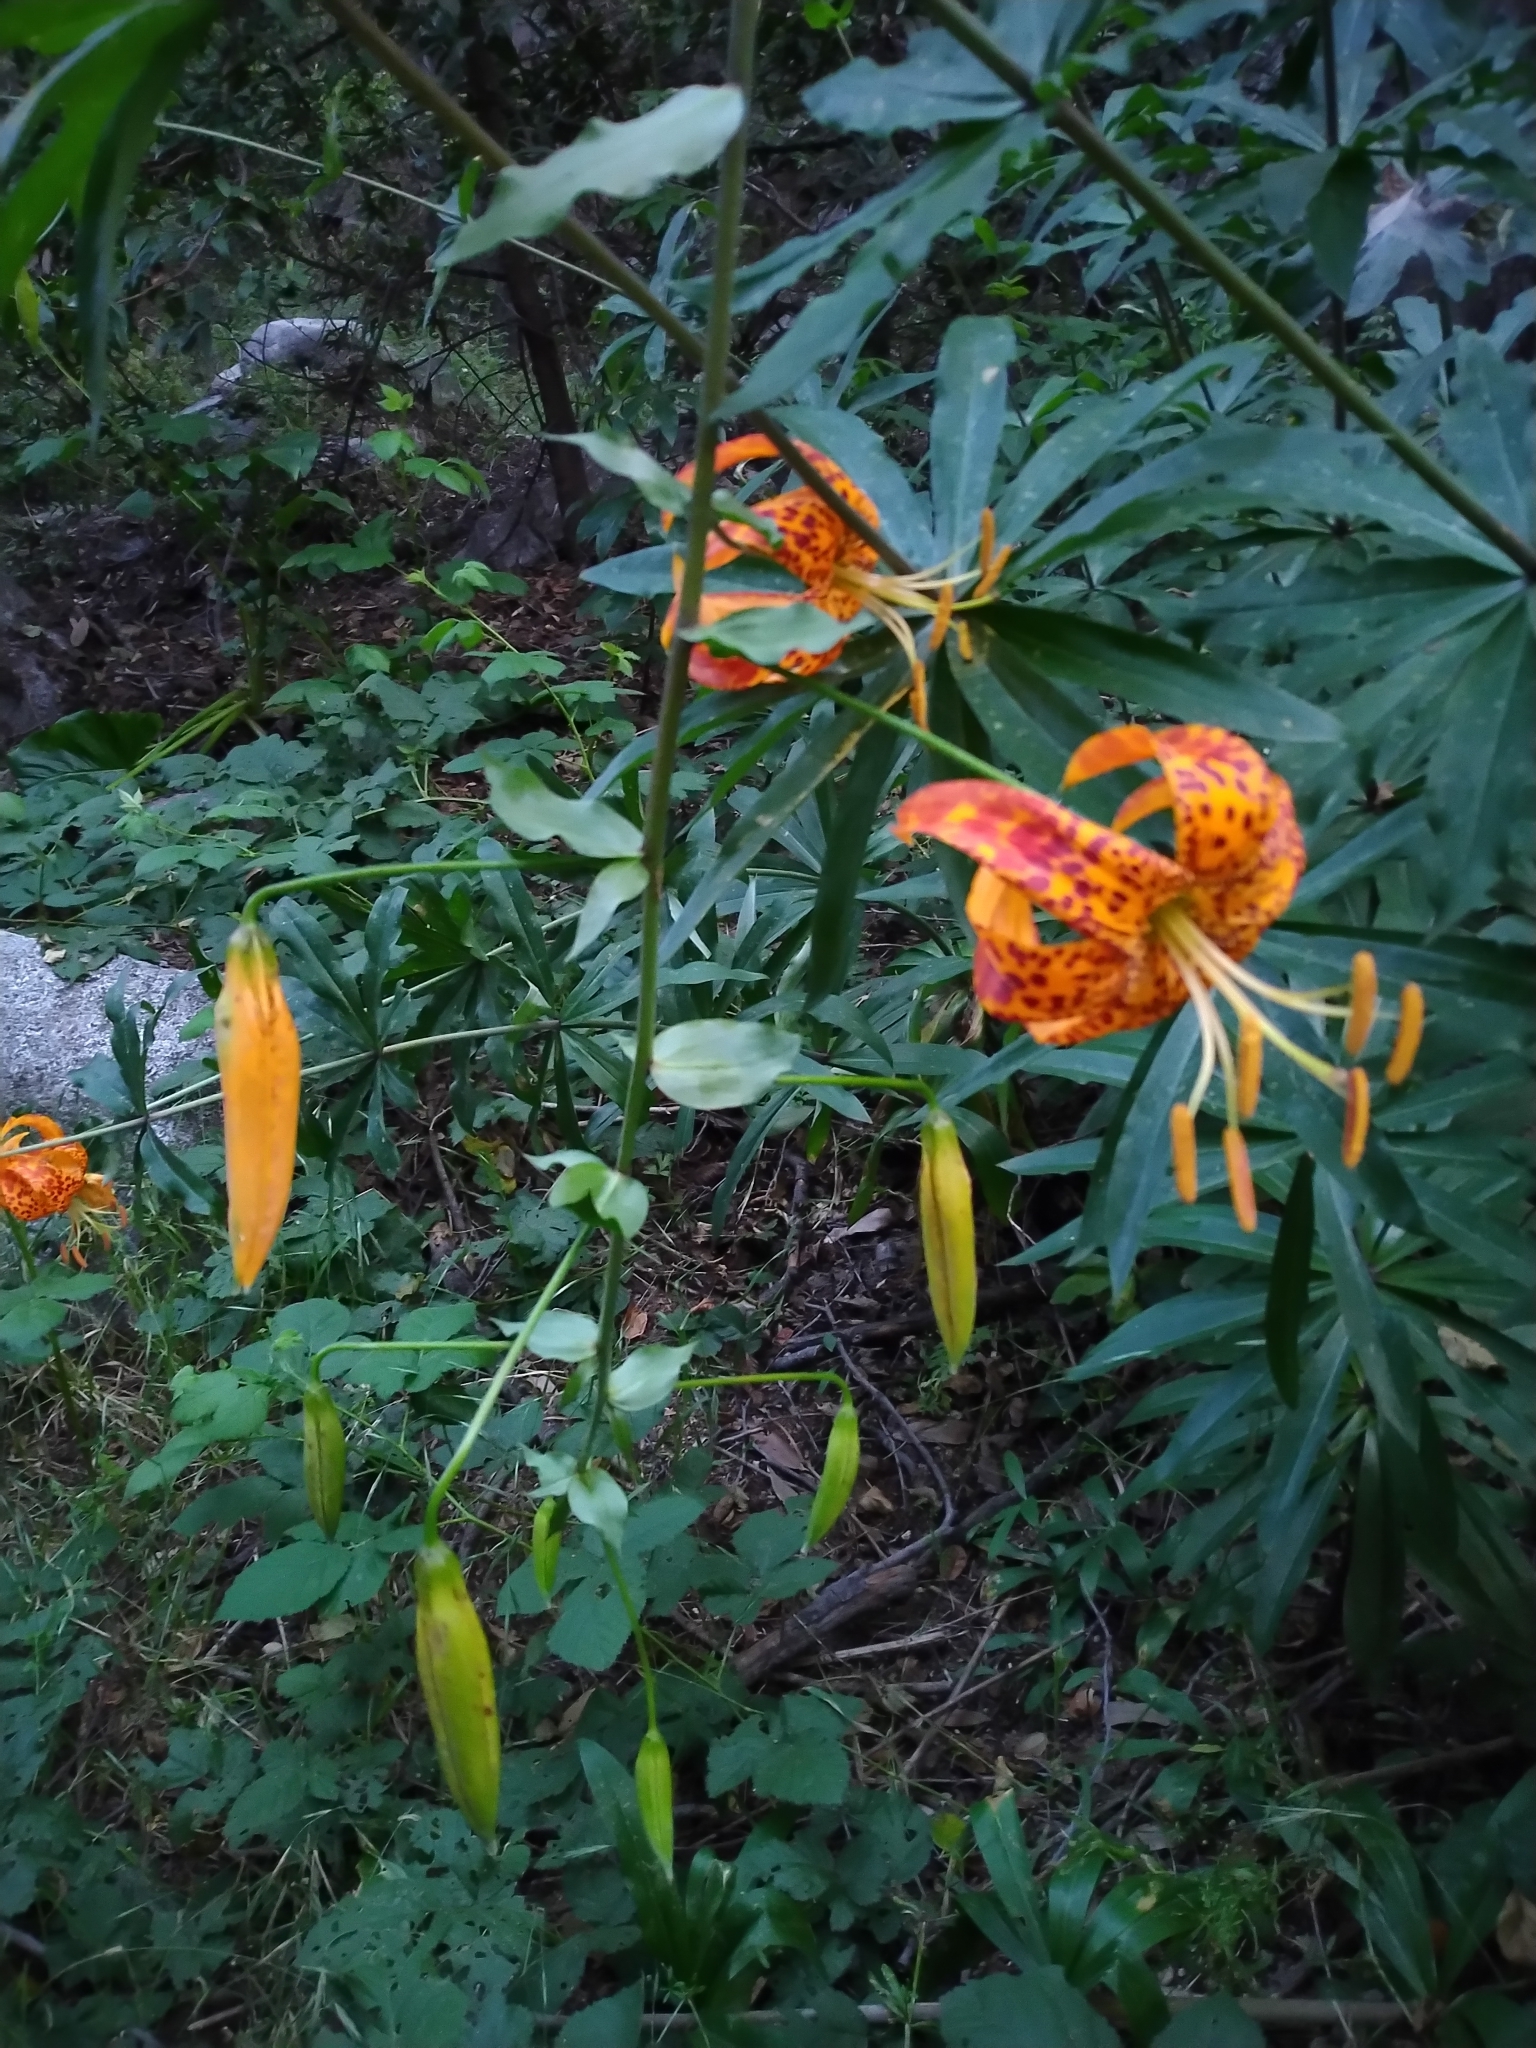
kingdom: Plantae
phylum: Tracheophyta
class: Liliopsida
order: Liliales
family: Liliaceae
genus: Lilium
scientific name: Lilium humboldtii
